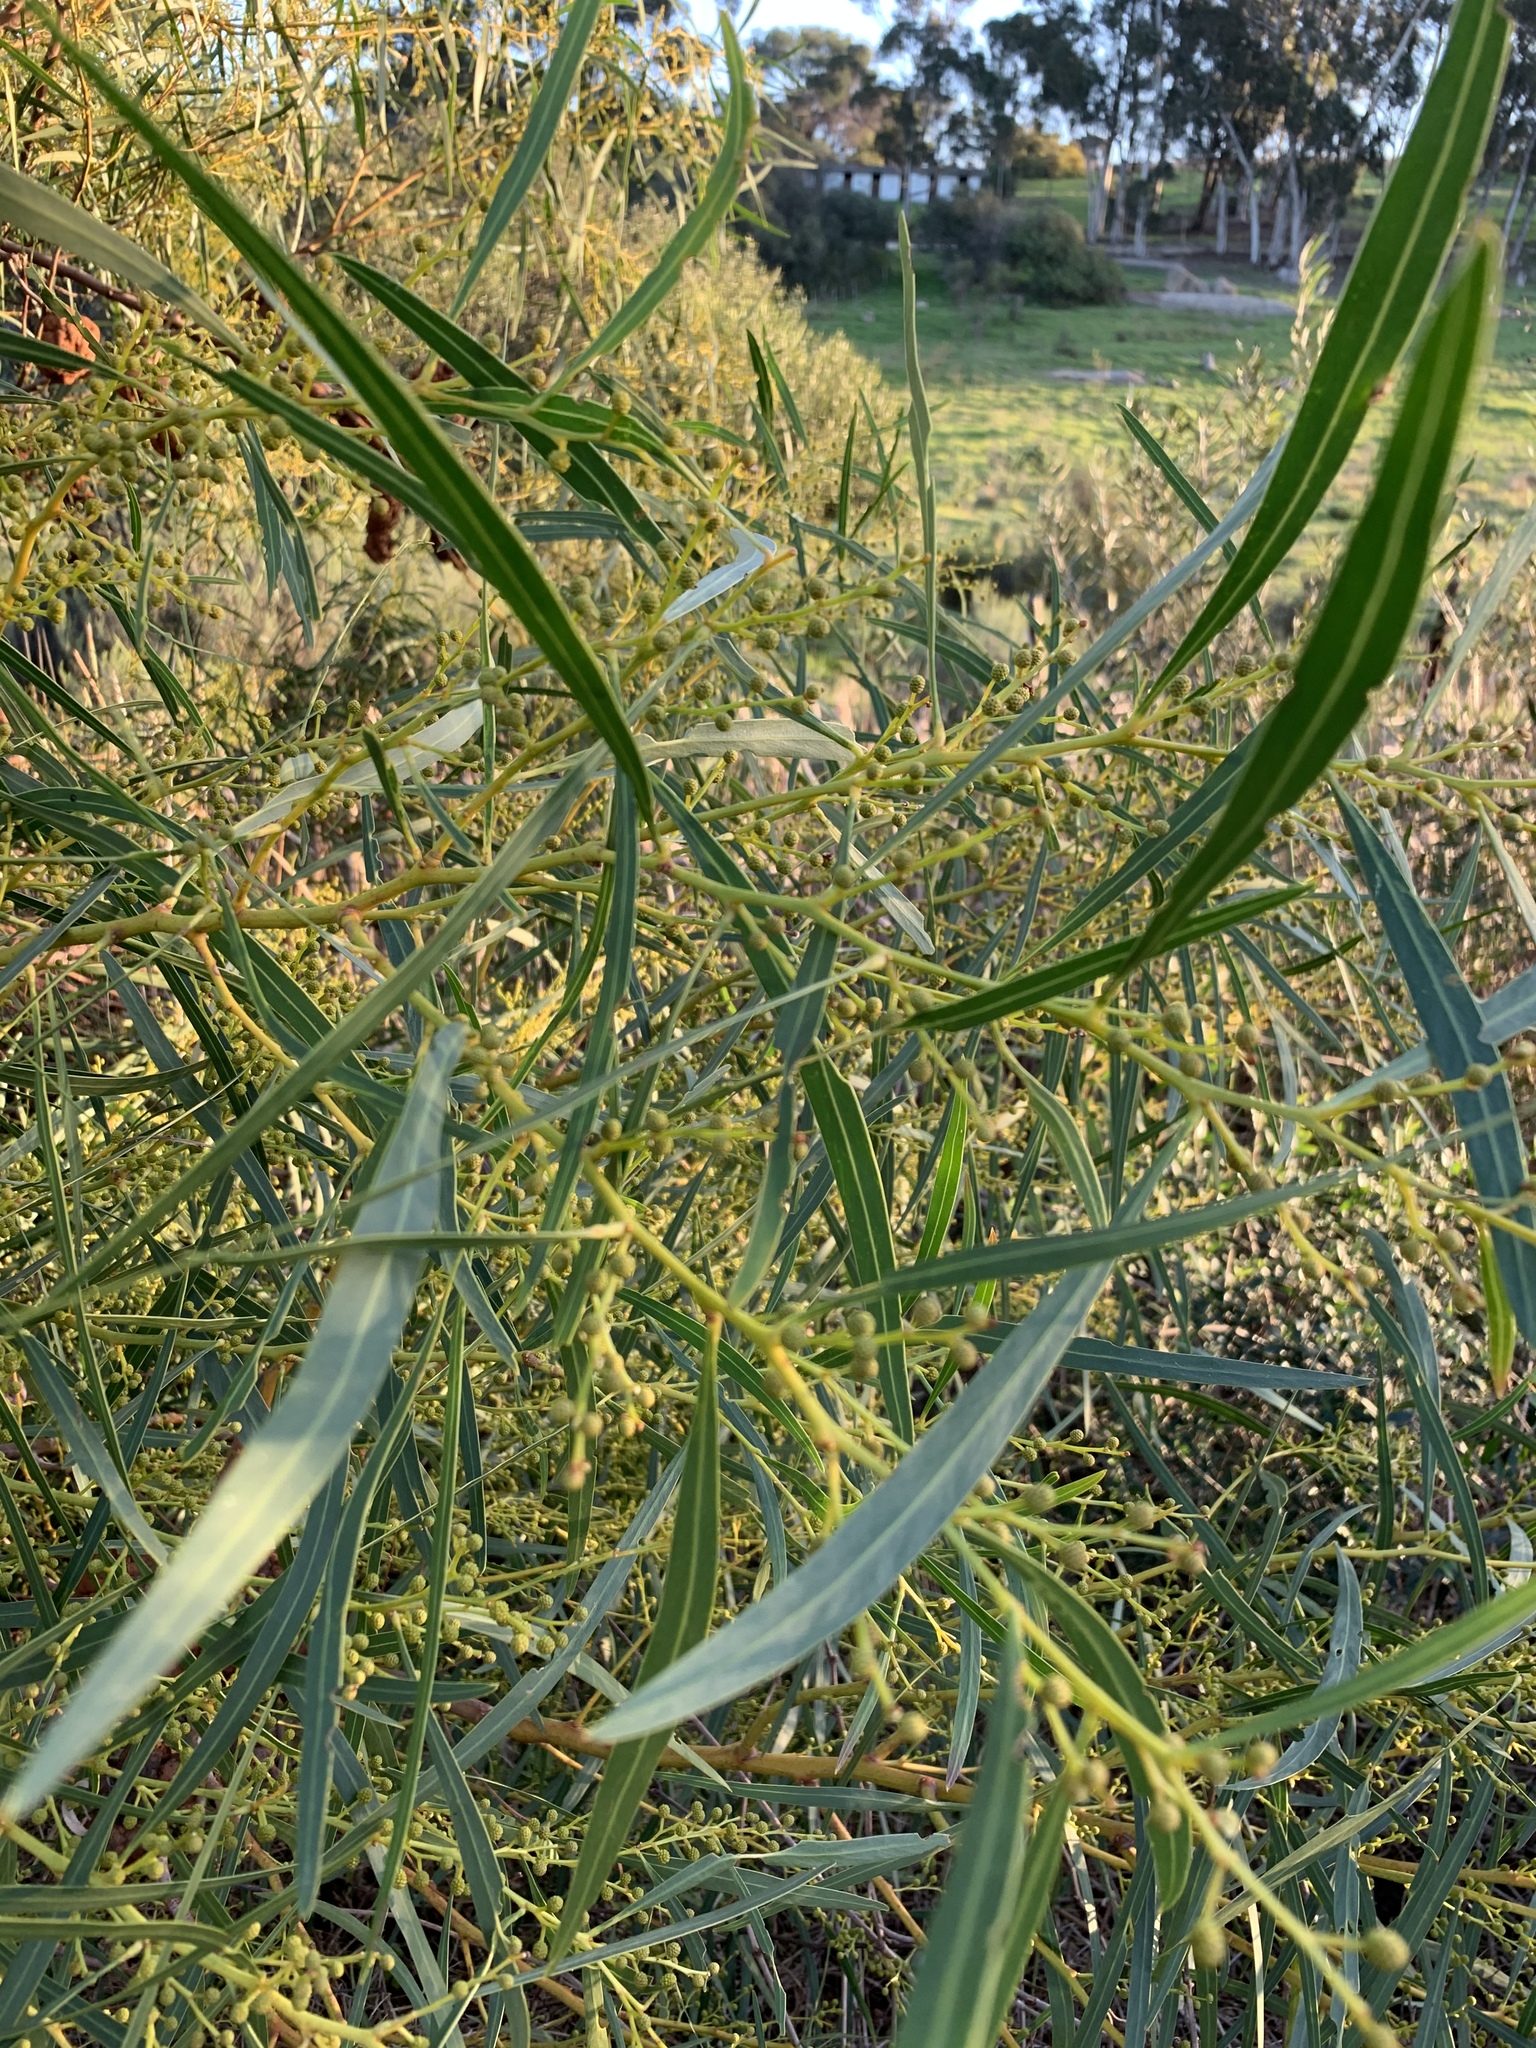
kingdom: Plantae
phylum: Tracheophyta
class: Magnoliopsida
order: Fabales
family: Fabaceae
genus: Acacia
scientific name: Acacia saligna
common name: Orange wattle
